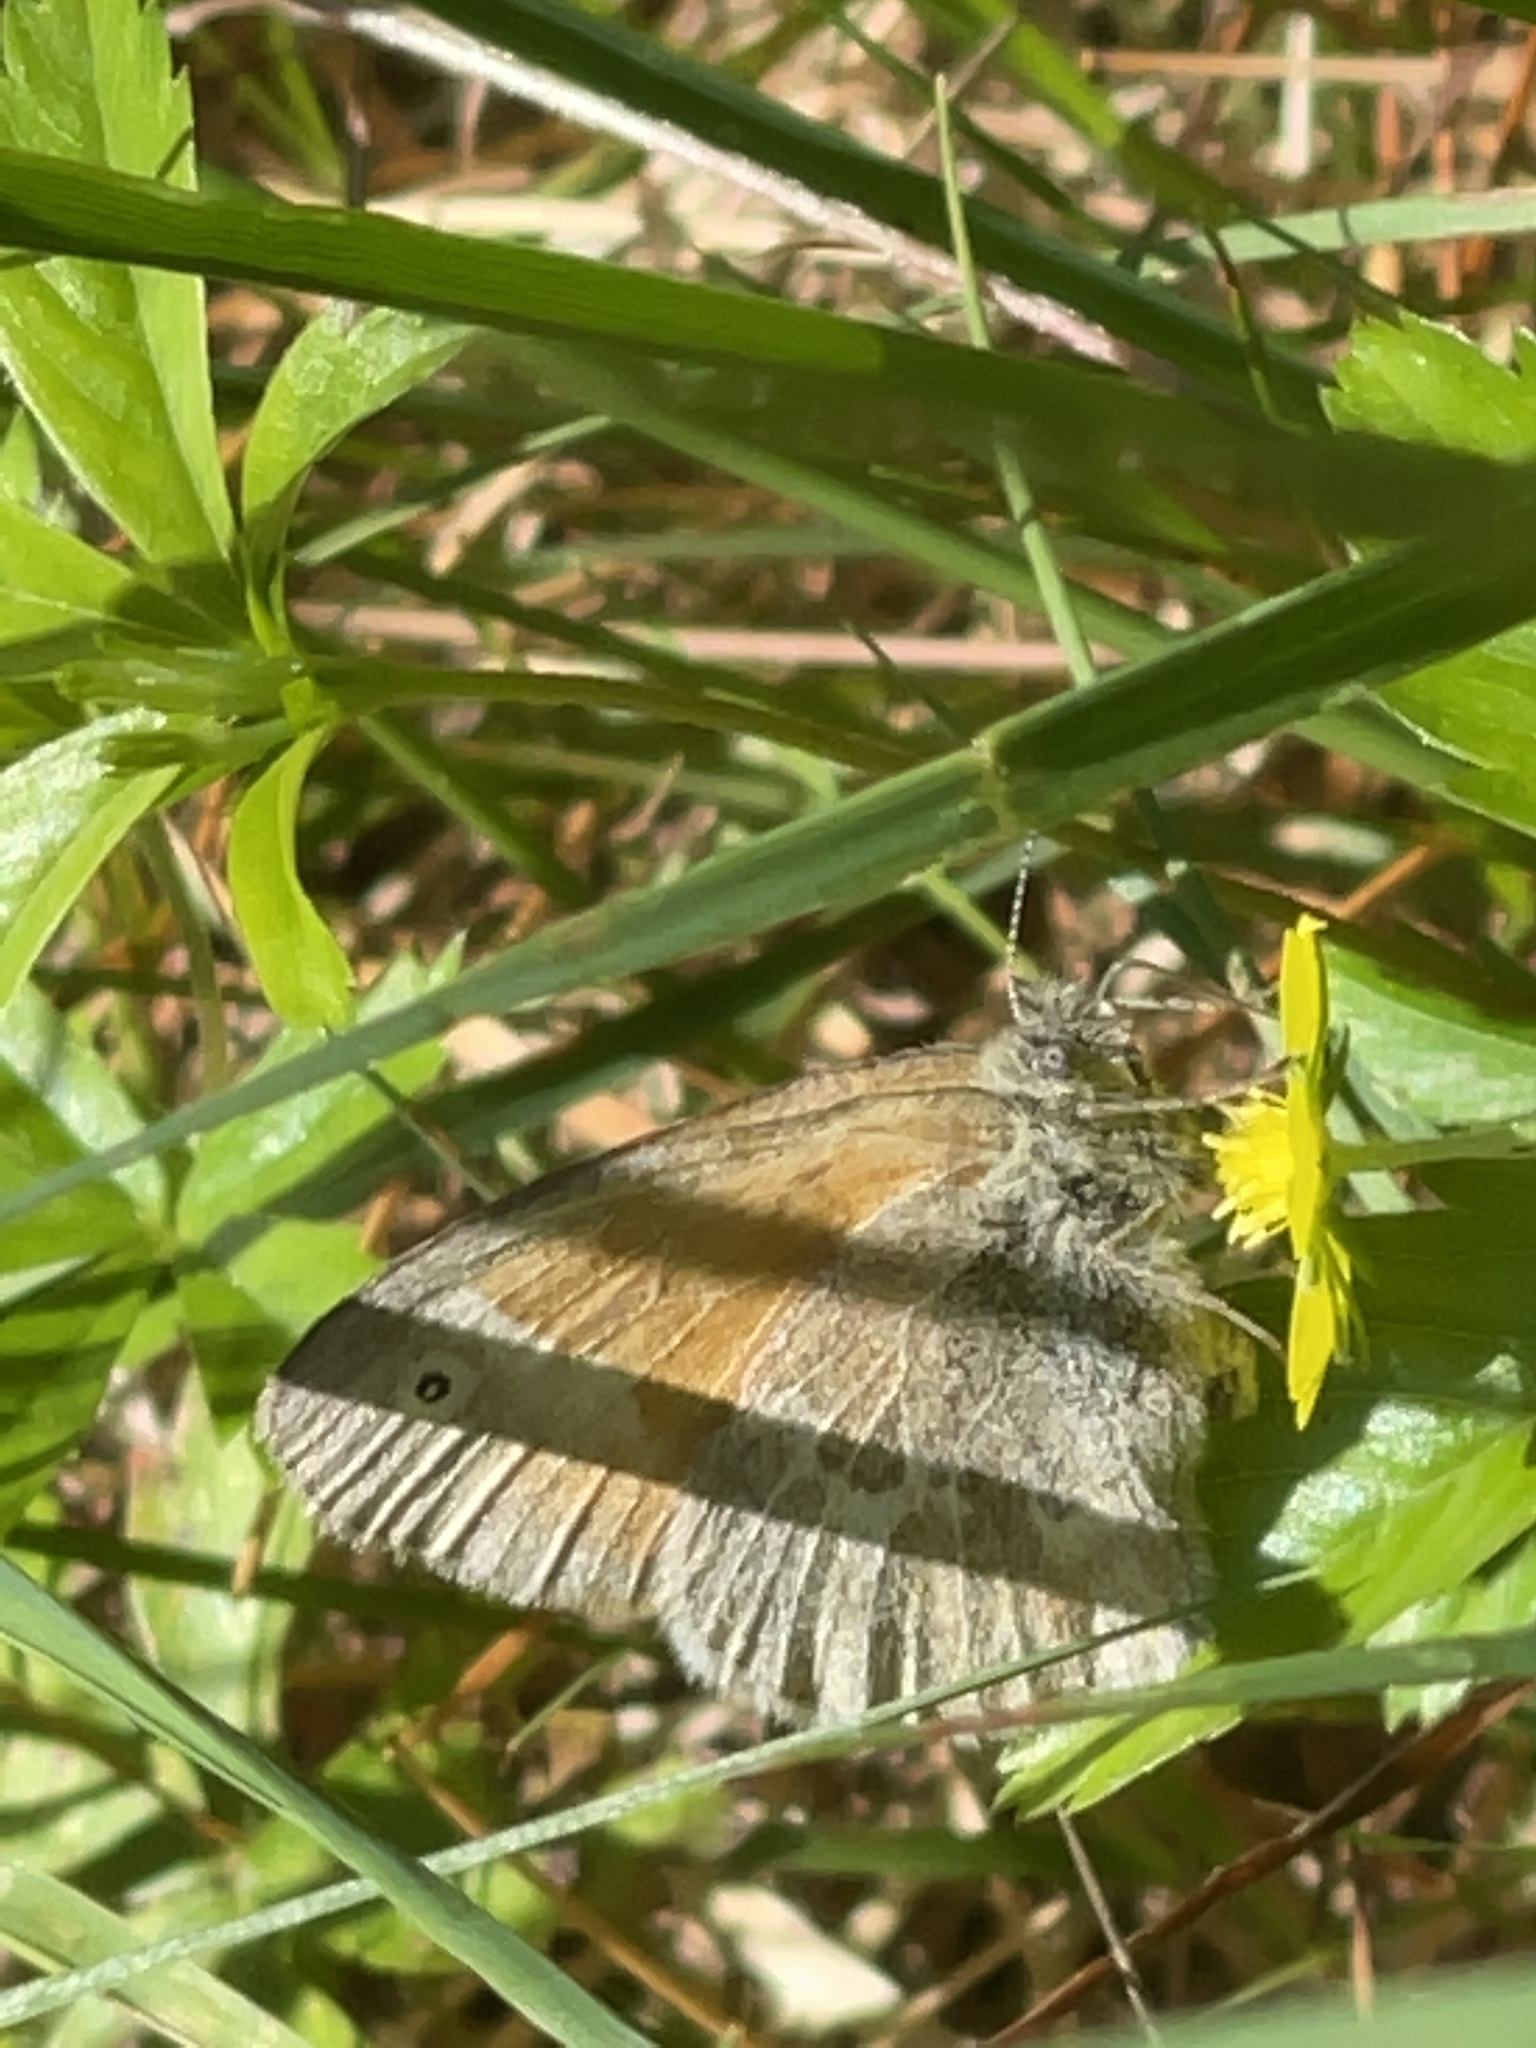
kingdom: Animalia
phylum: Arthropoda
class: Insecta
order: Lepidoptera
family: Nymphalidae
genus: Coenonympha
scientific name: Coenonympha california
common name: Common ringlet
